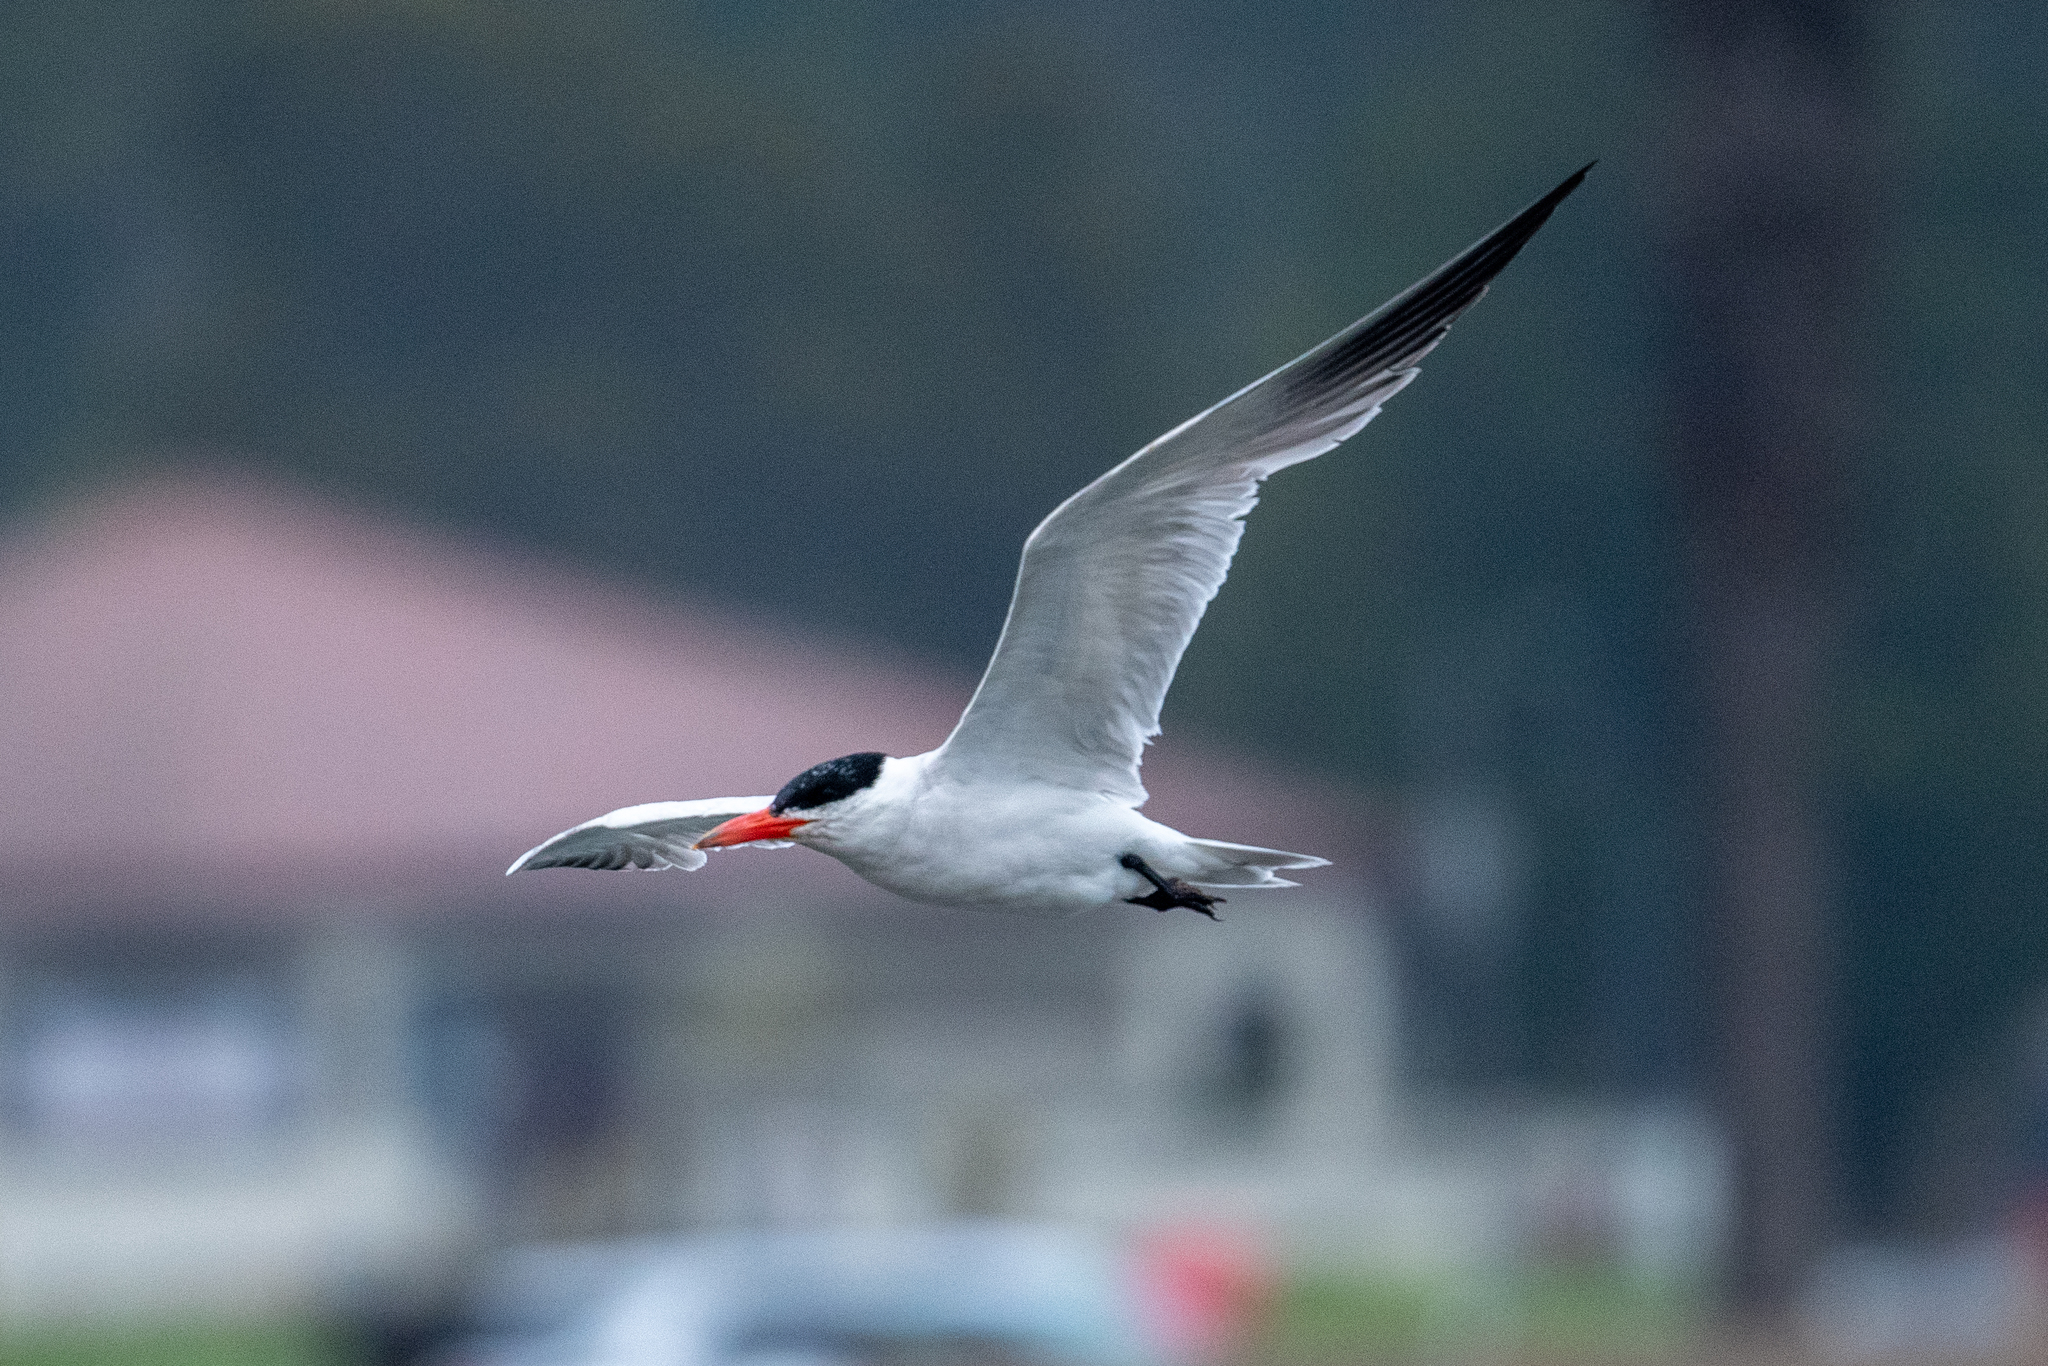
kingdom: Animalia
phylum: Chordata
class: Aves
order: Charadriiformes
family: Laridae
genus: Hydroprogne
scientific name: Hydroprogne caspia
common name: Caspian tern
